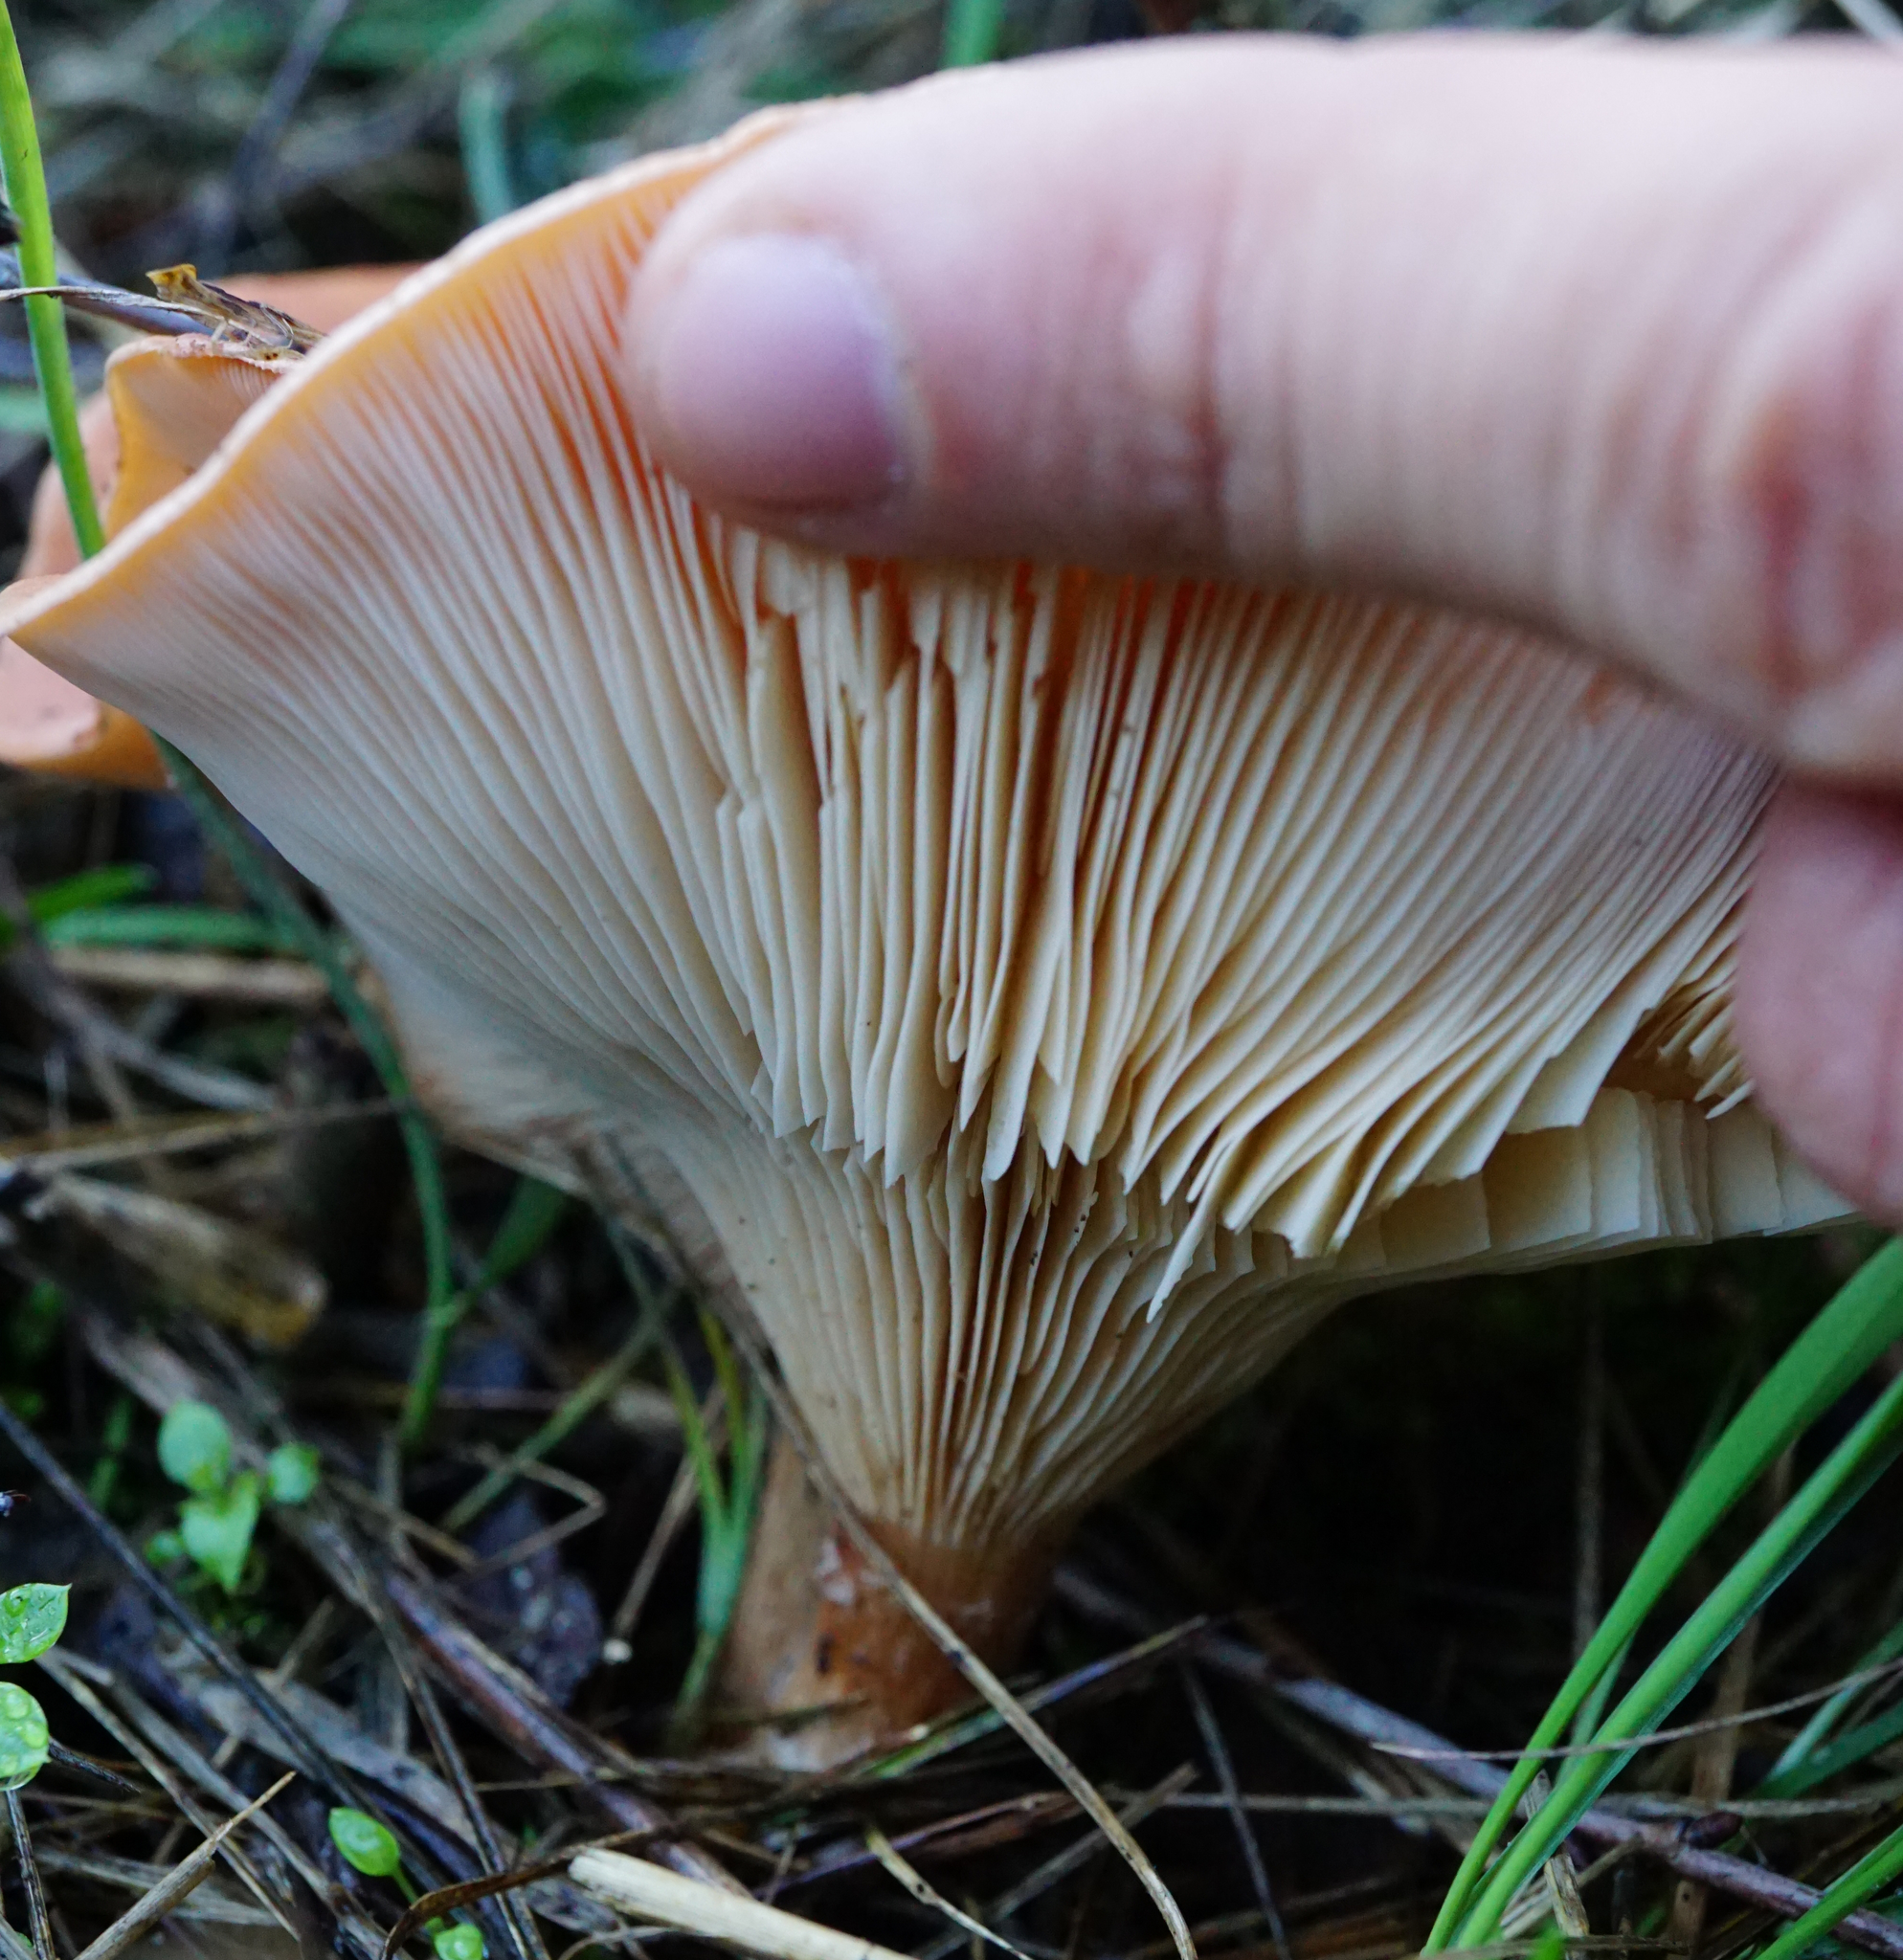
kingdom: Fungi
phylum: Basidiomycota
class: Agaricomycetes
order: Agaricales
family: Tricholomataceae
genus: Paralepista
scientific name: Paralepista flaccida
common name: Tawny funnel cap
